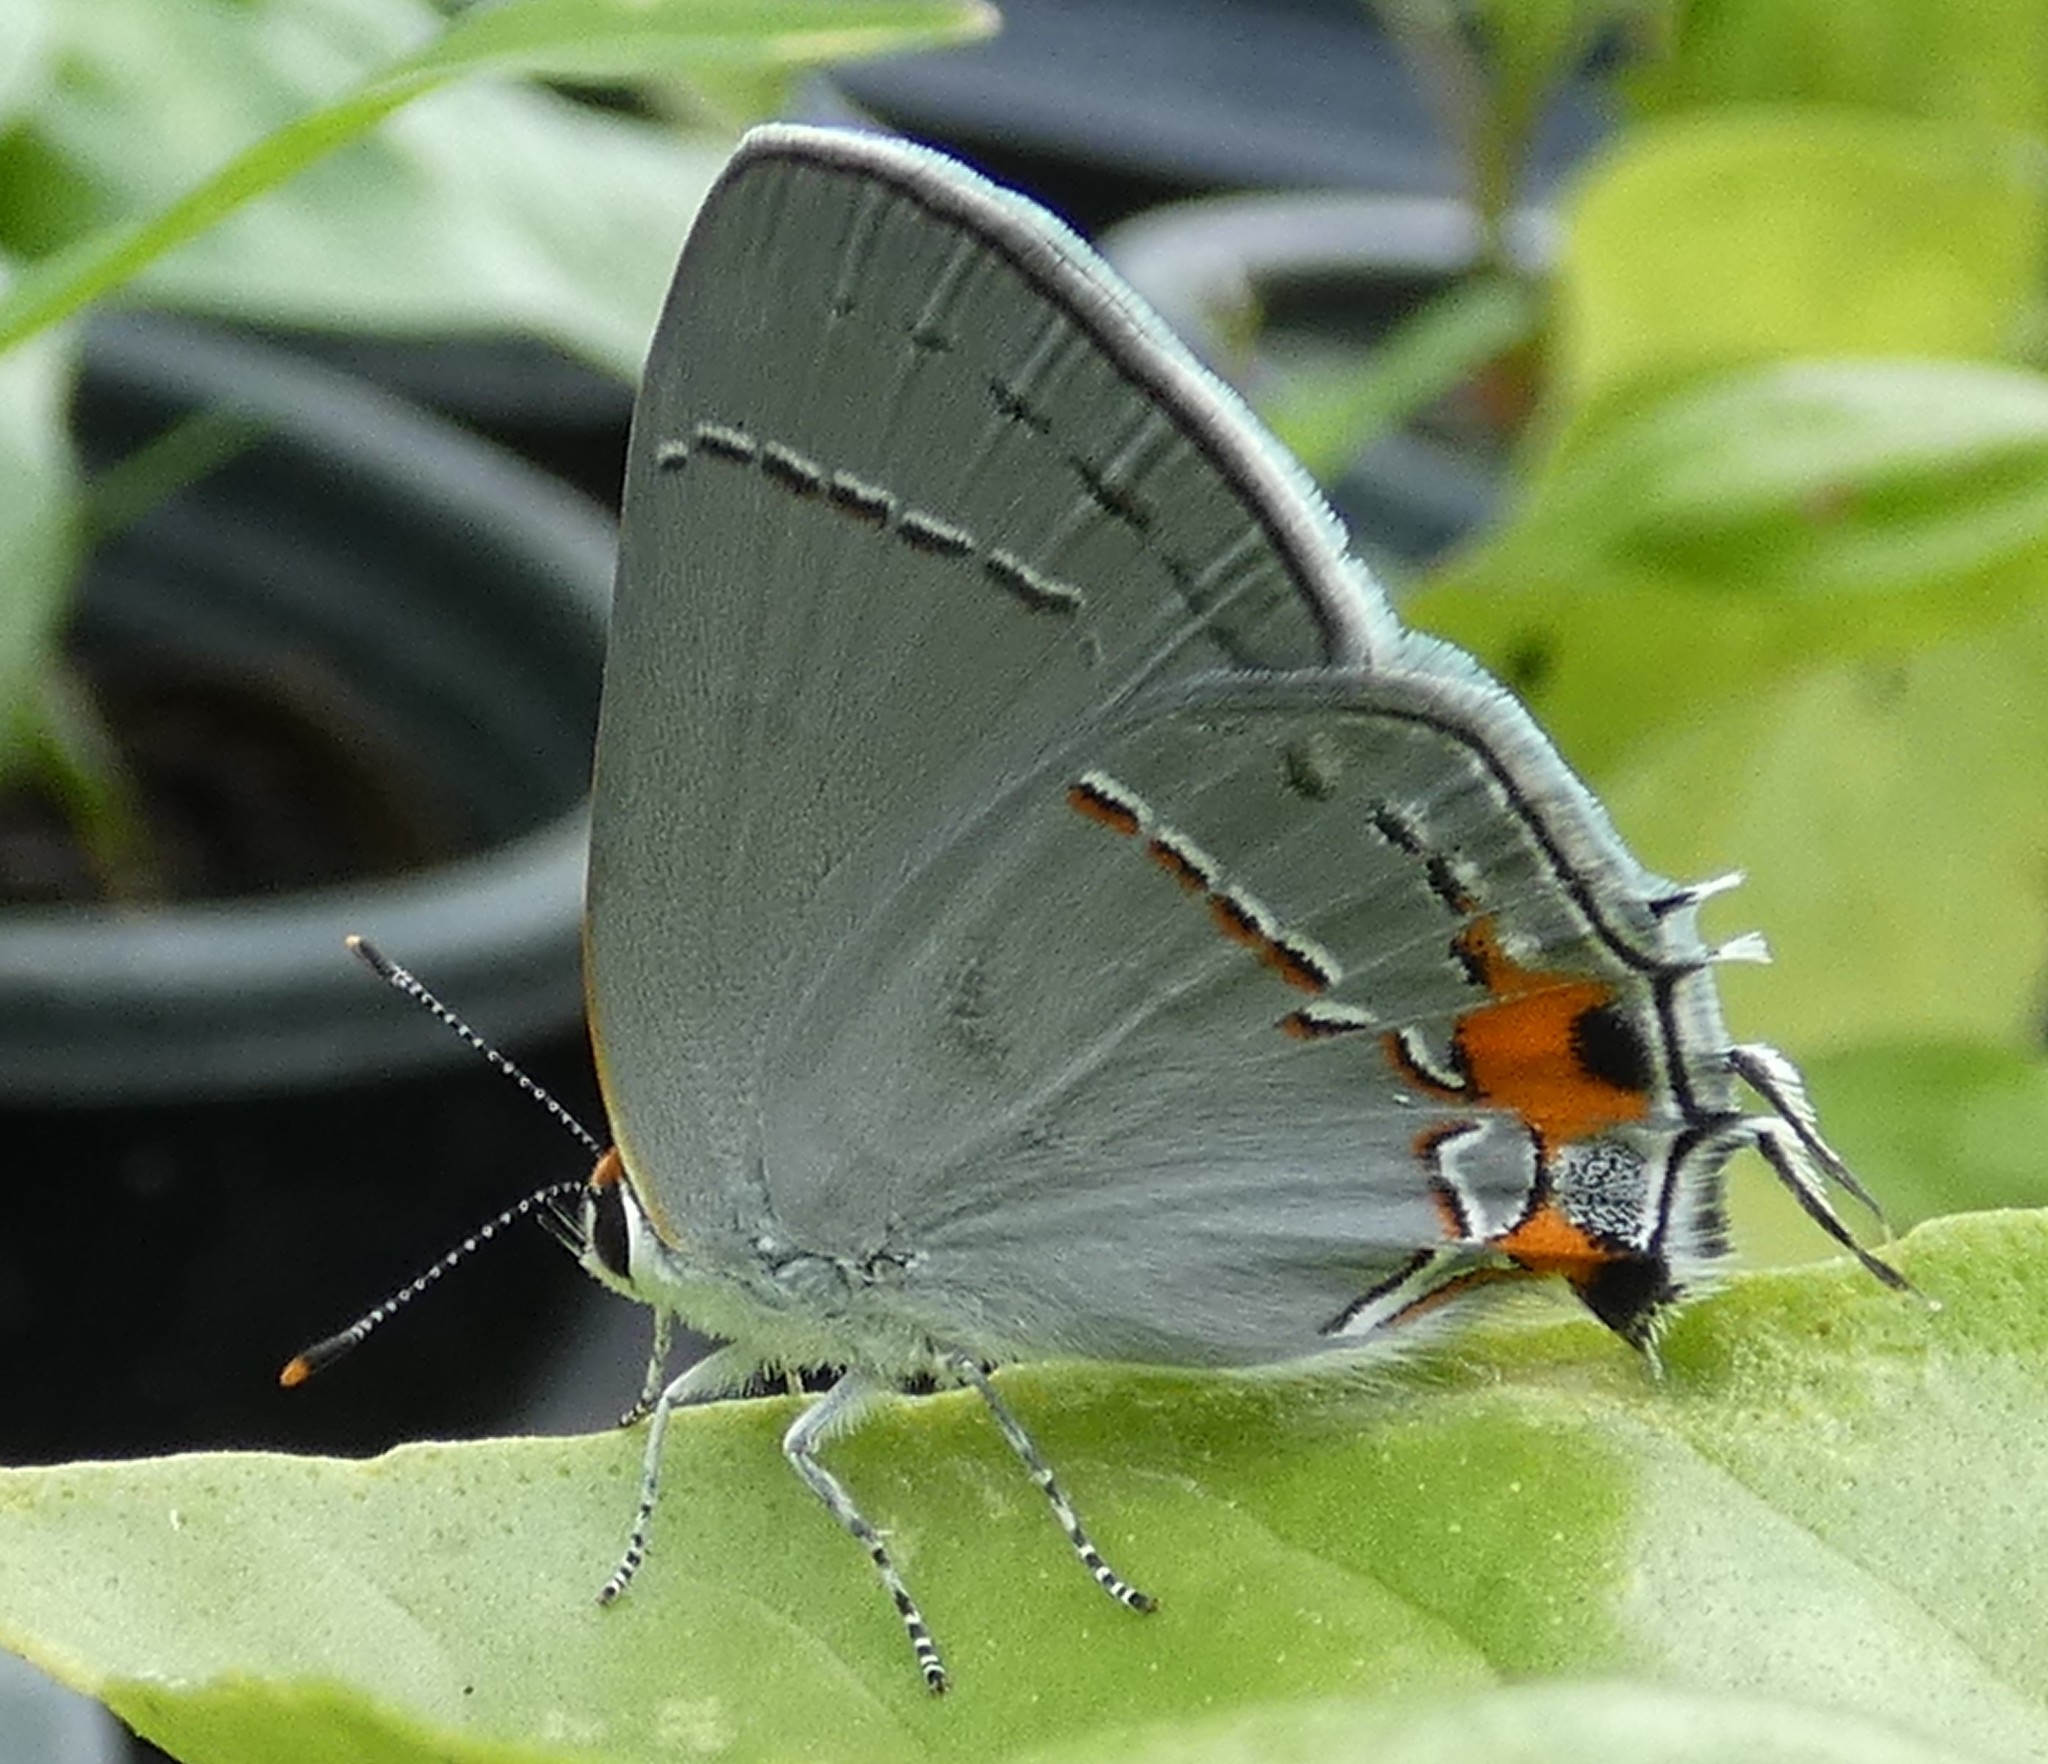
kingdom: Animalia
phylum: Arthropoda
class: Insecta
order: Lepidoptera
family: Lycaenidae
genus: Strymon
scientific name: Strymon melinus
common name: Gray hairstreak
